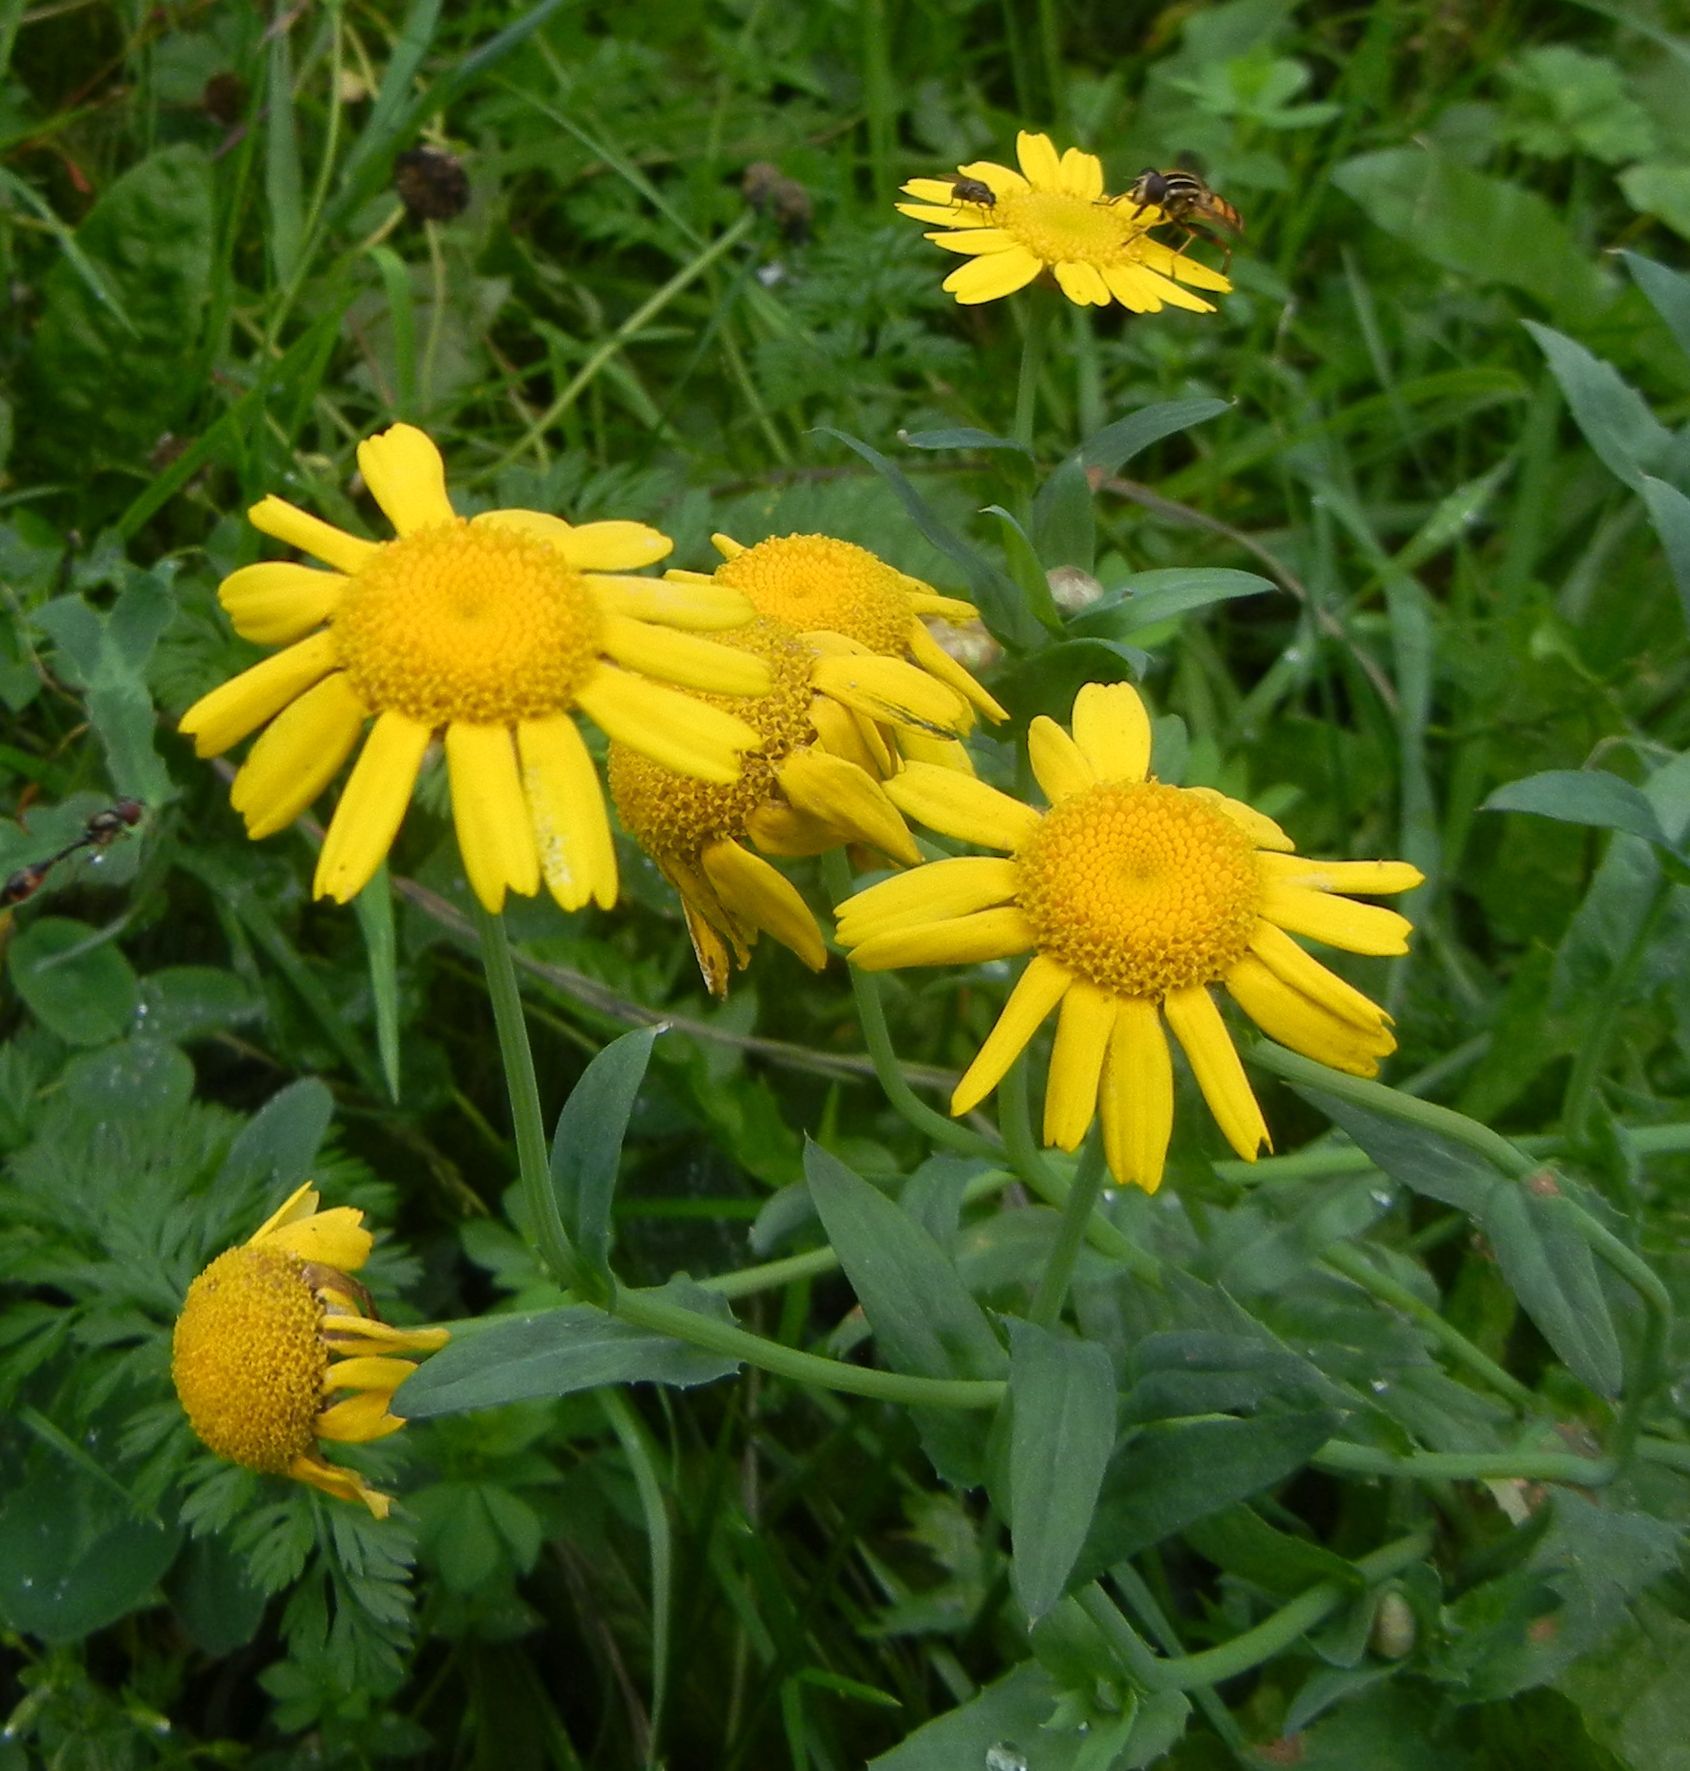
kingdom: Plantae
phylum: Tracheophyta
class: Magnoliopsida
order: Asterales
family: Asteraceae
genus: Glebionis
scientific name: Glebionis segetum
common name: Corndaisy
